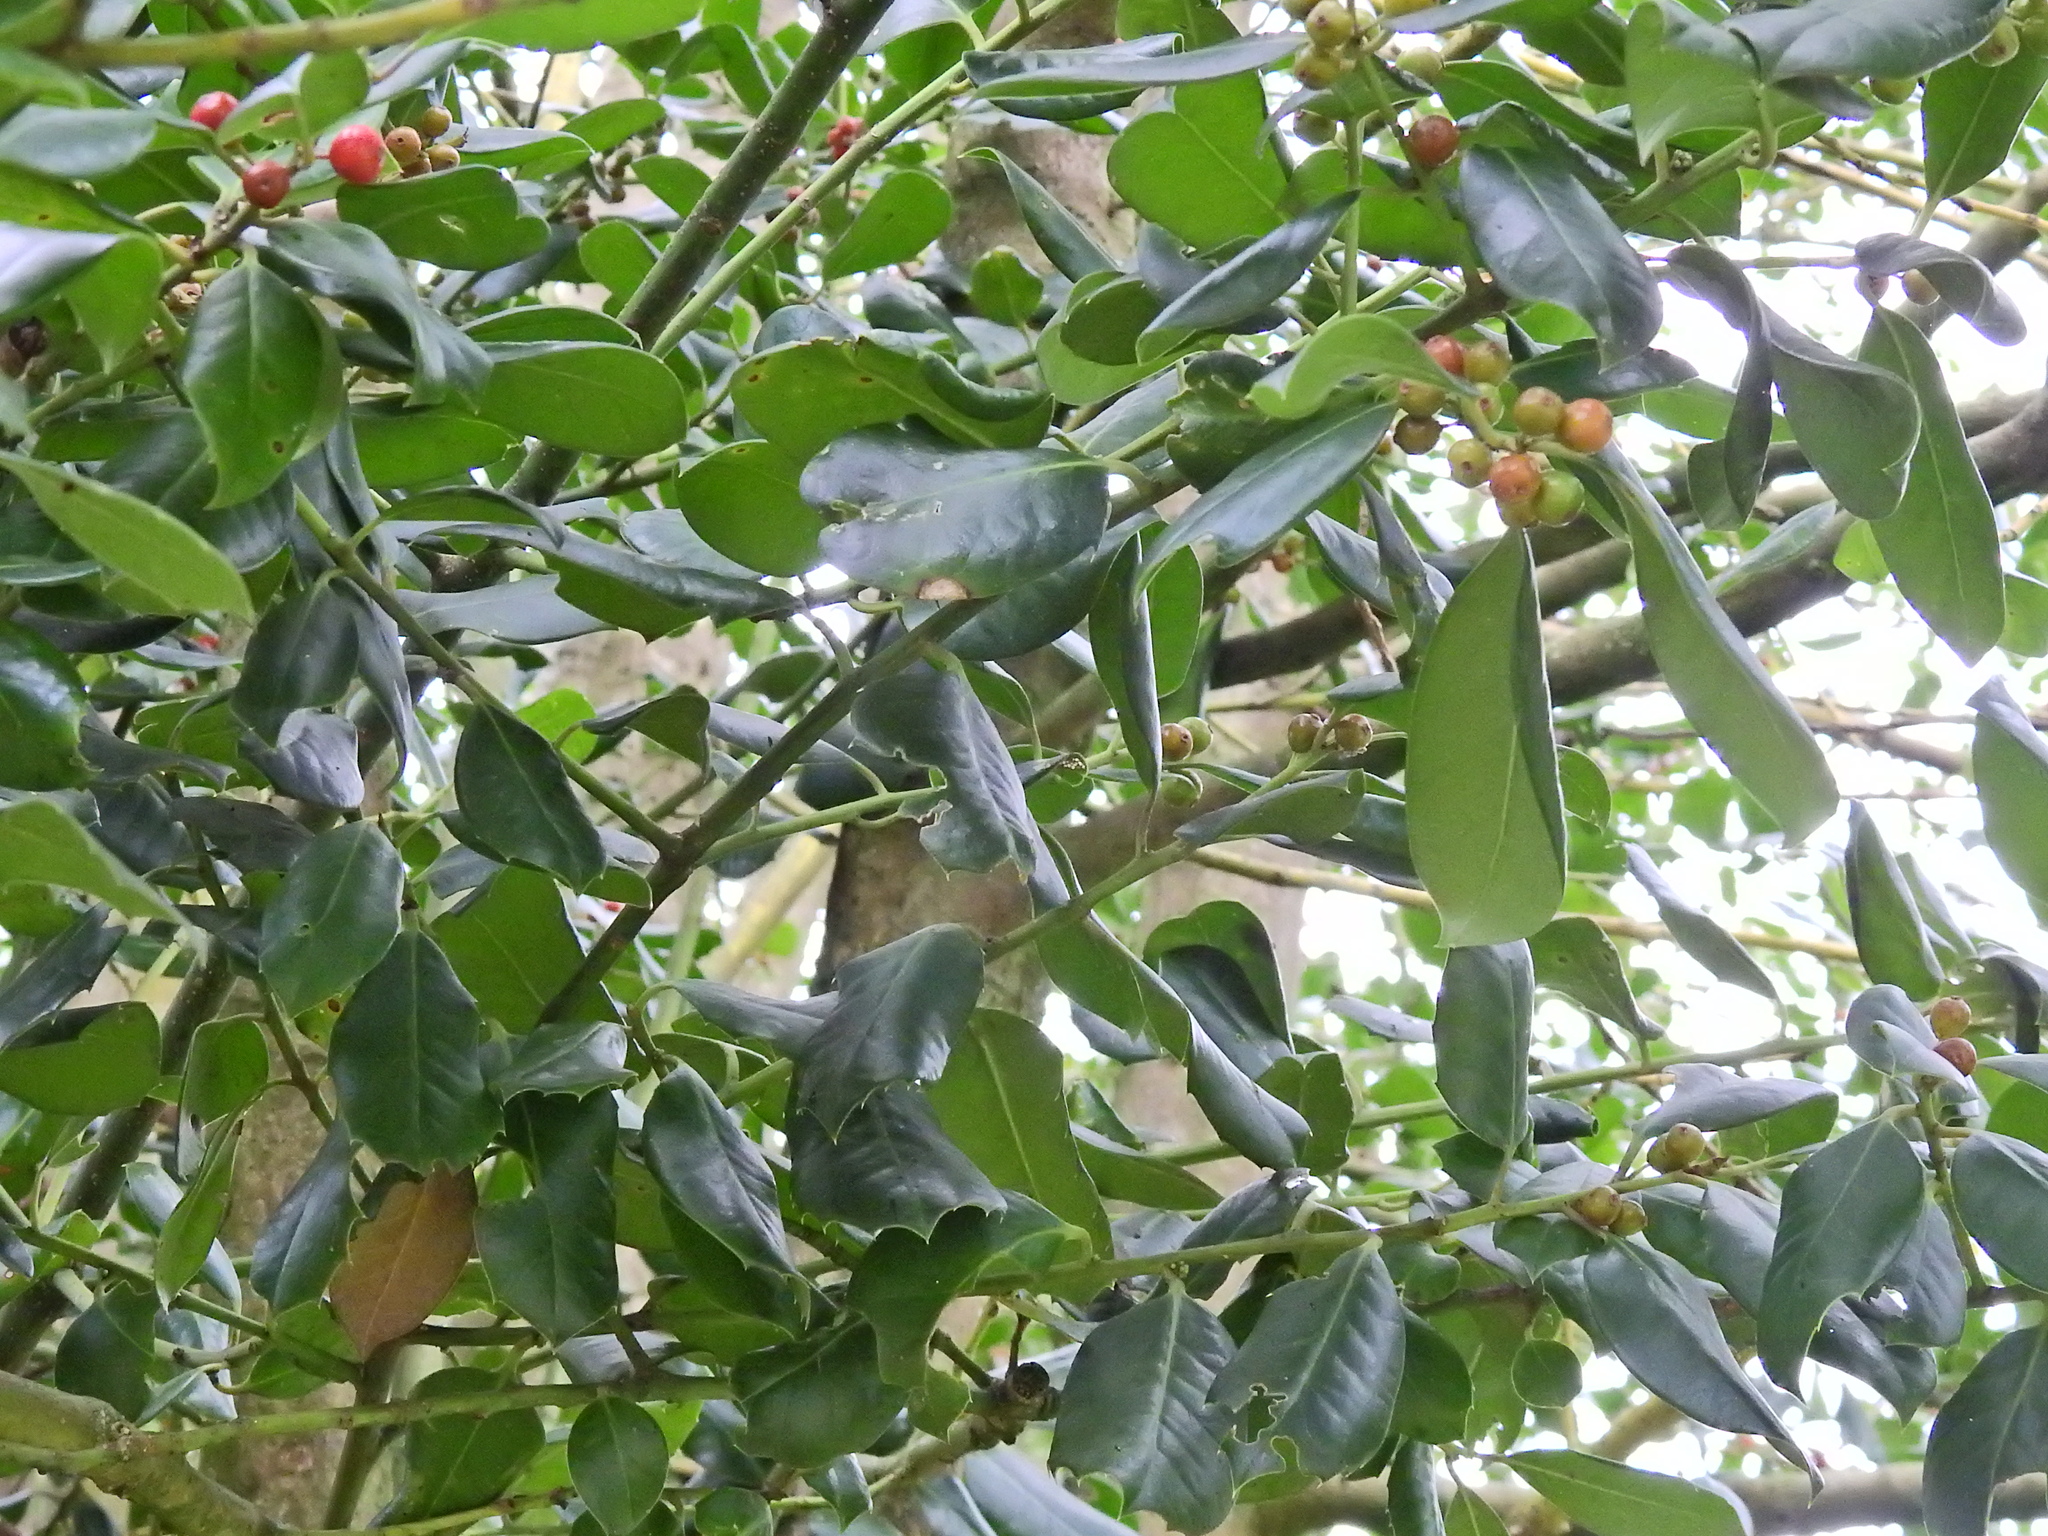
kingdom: Plantae
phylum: Tracheophyta
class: Magnoliopsida
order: Aquifoliales
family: Aquifoliaceae
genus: Ilex
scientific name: Ilex aquifolium
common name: English holly
